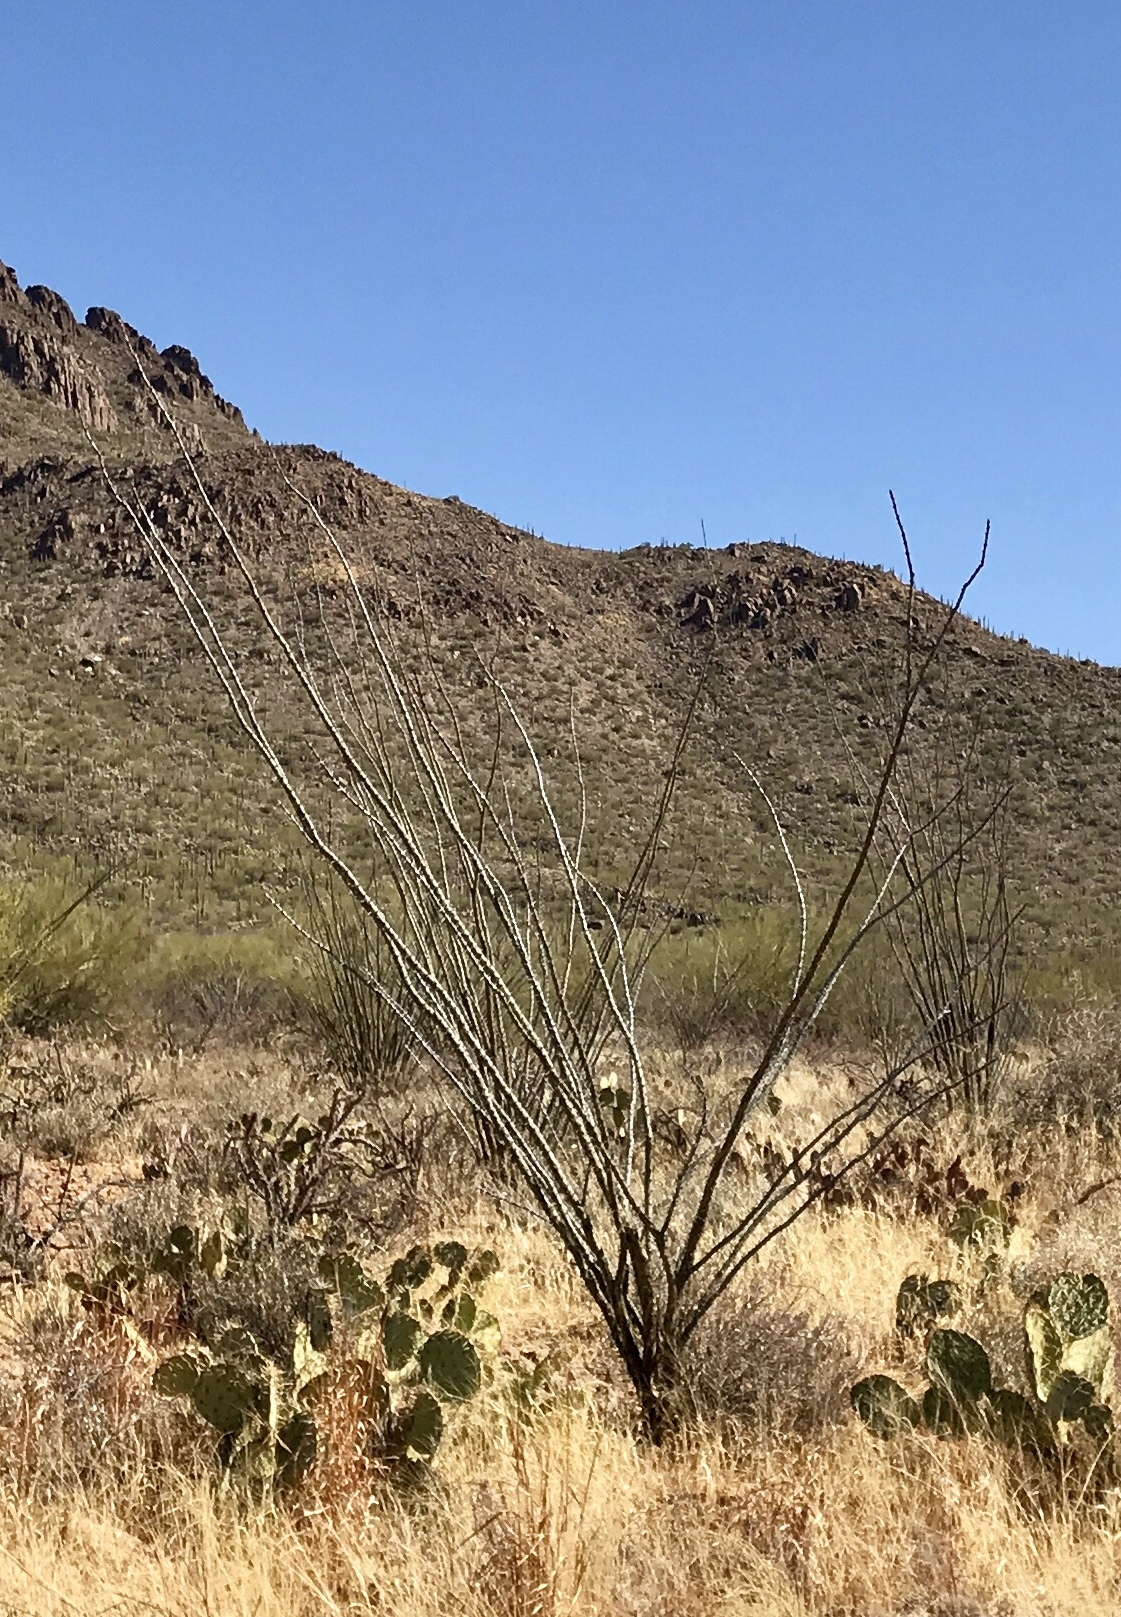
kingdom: Plantae
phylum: Tracheophyta
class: Magnoliopsida
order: Ericales
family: Fouquieriaceae
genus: Fouquieria
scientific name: Fouquieria splendens
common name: Vine-cactus
